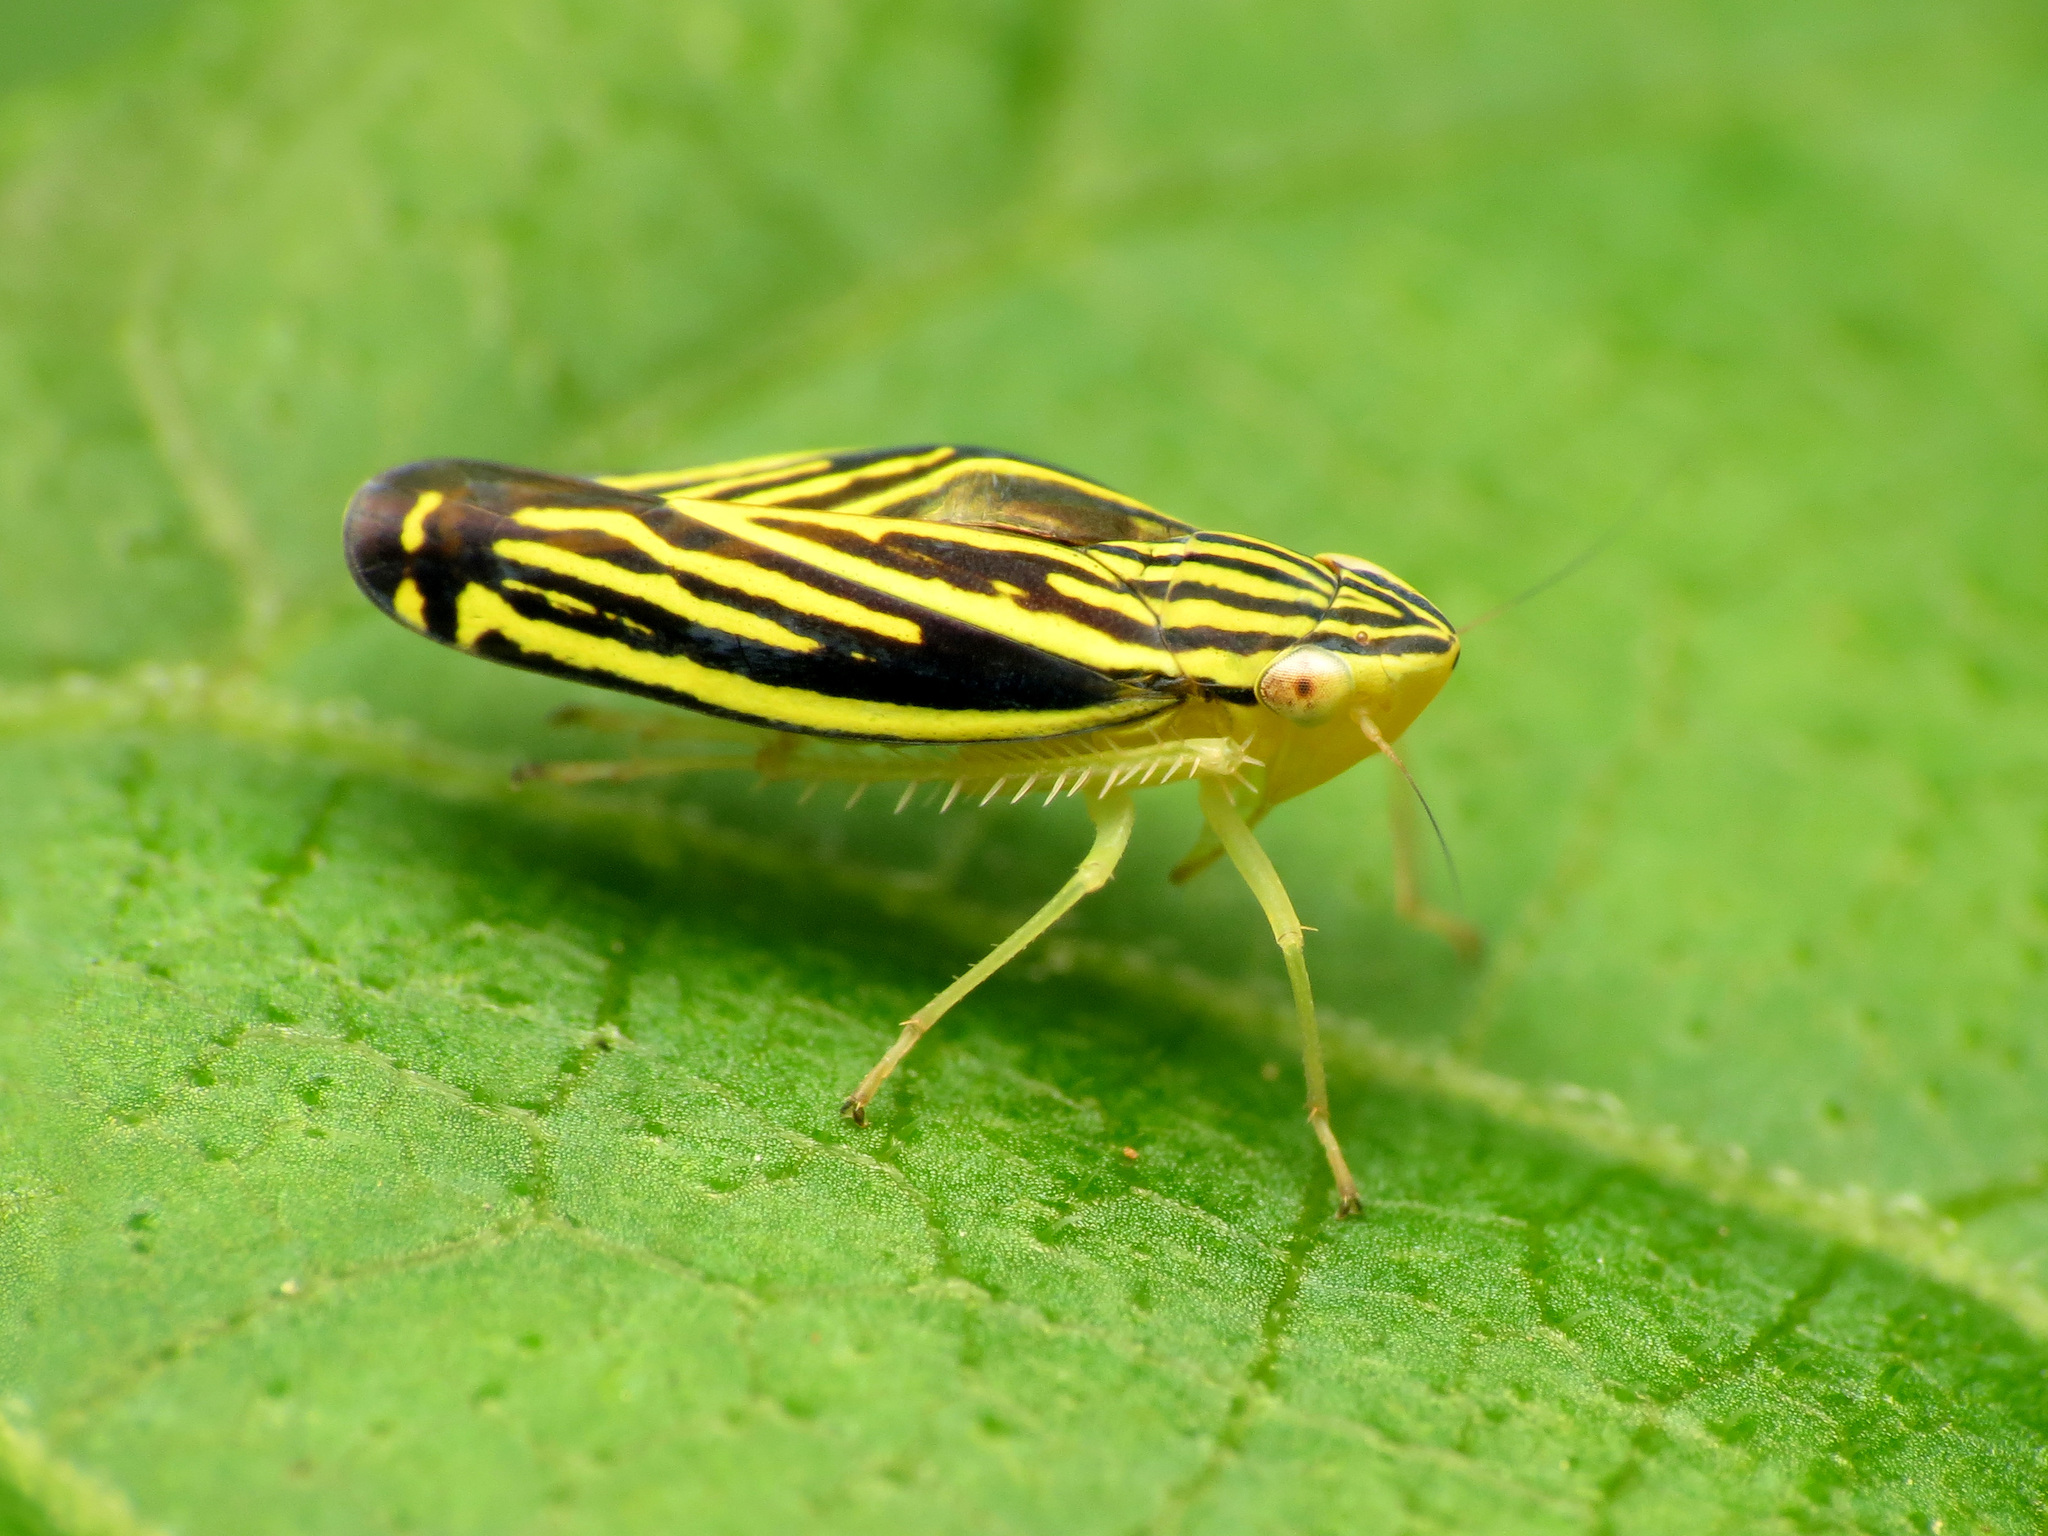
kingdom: Animalia
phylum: Arthropoda
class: Insecta
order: Hemiptera
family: Cicadellidae
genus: Sibovia
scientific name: Sibovia occatoria
